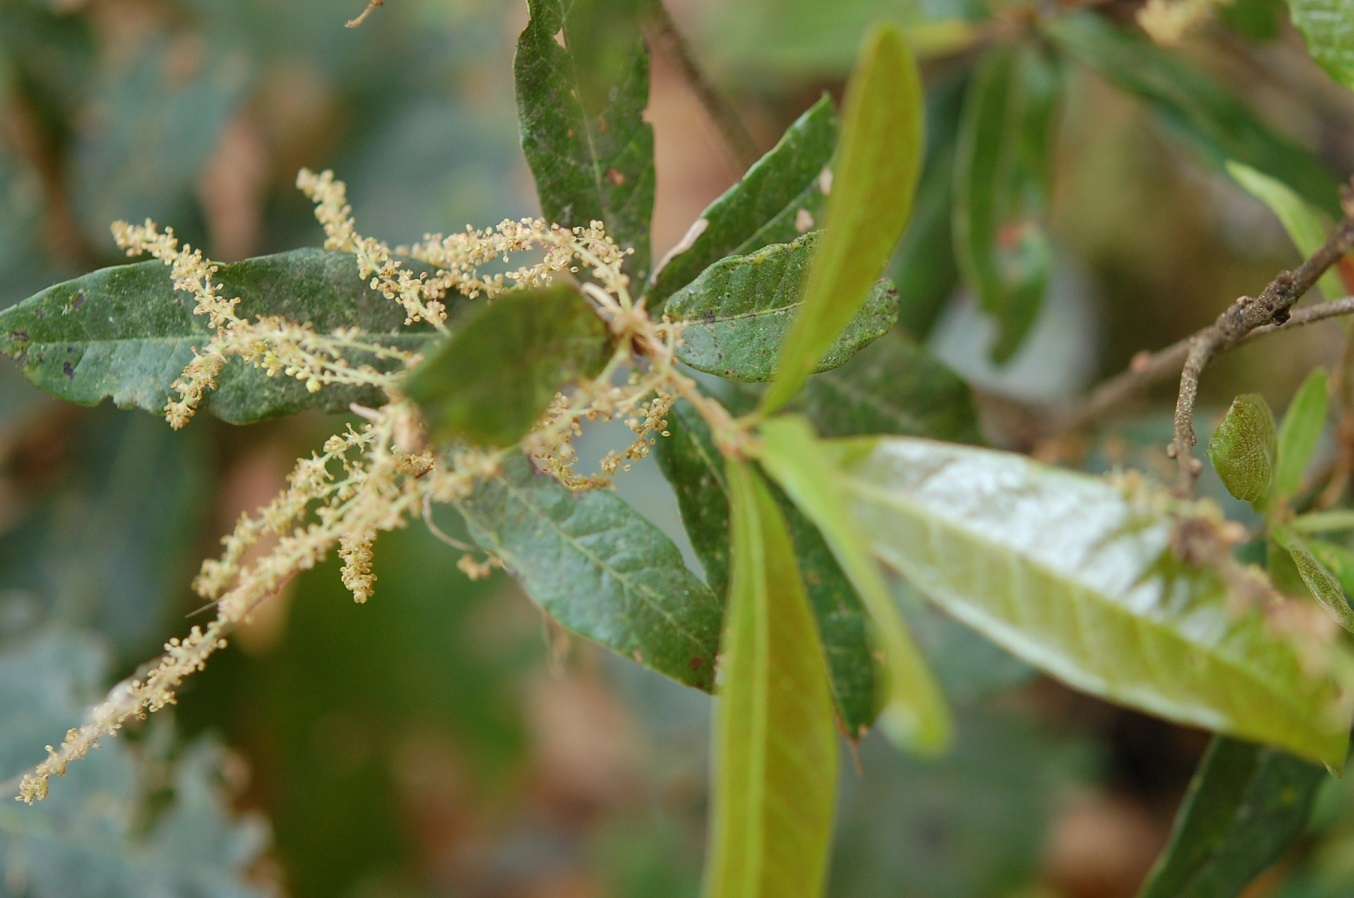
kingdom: Plantae
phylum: Tracheophyta
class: Magnoliopsida
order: Fagales
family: Fagaceae
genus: Quercus
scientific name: Quercus sapotifolia
